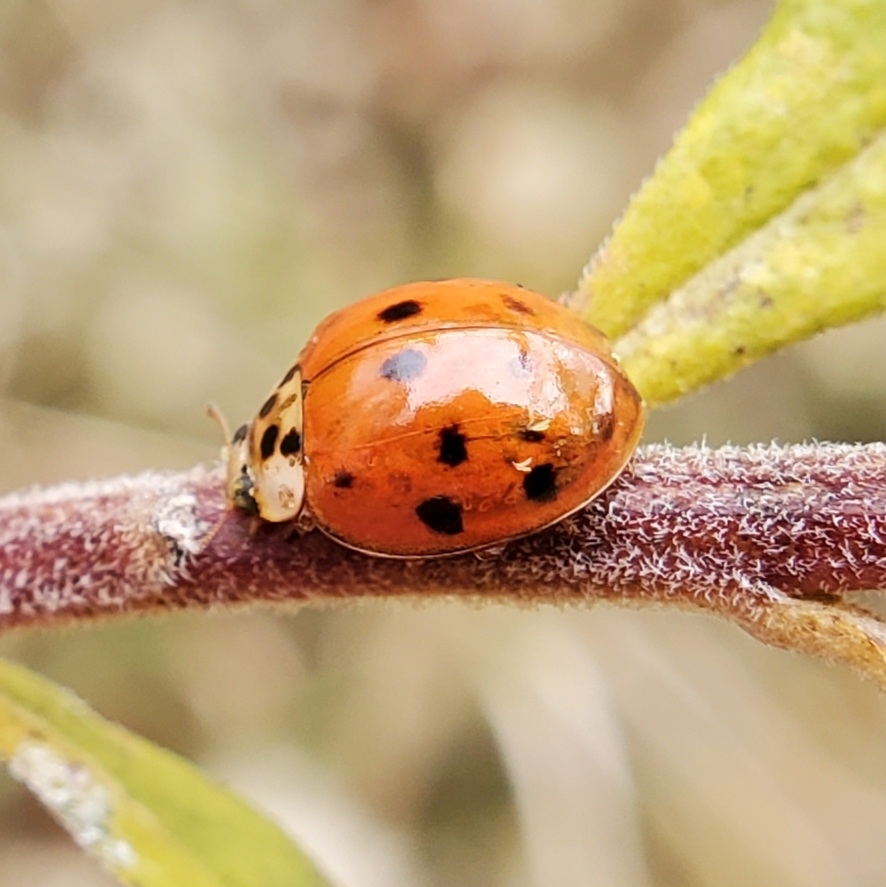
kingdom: Animalia
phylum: Arthropoda
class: Insecta
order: Coleoptera
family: Coccinellidae
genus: Harmonia
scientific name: Harmonia axyridis
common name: Harlequin ladybird
